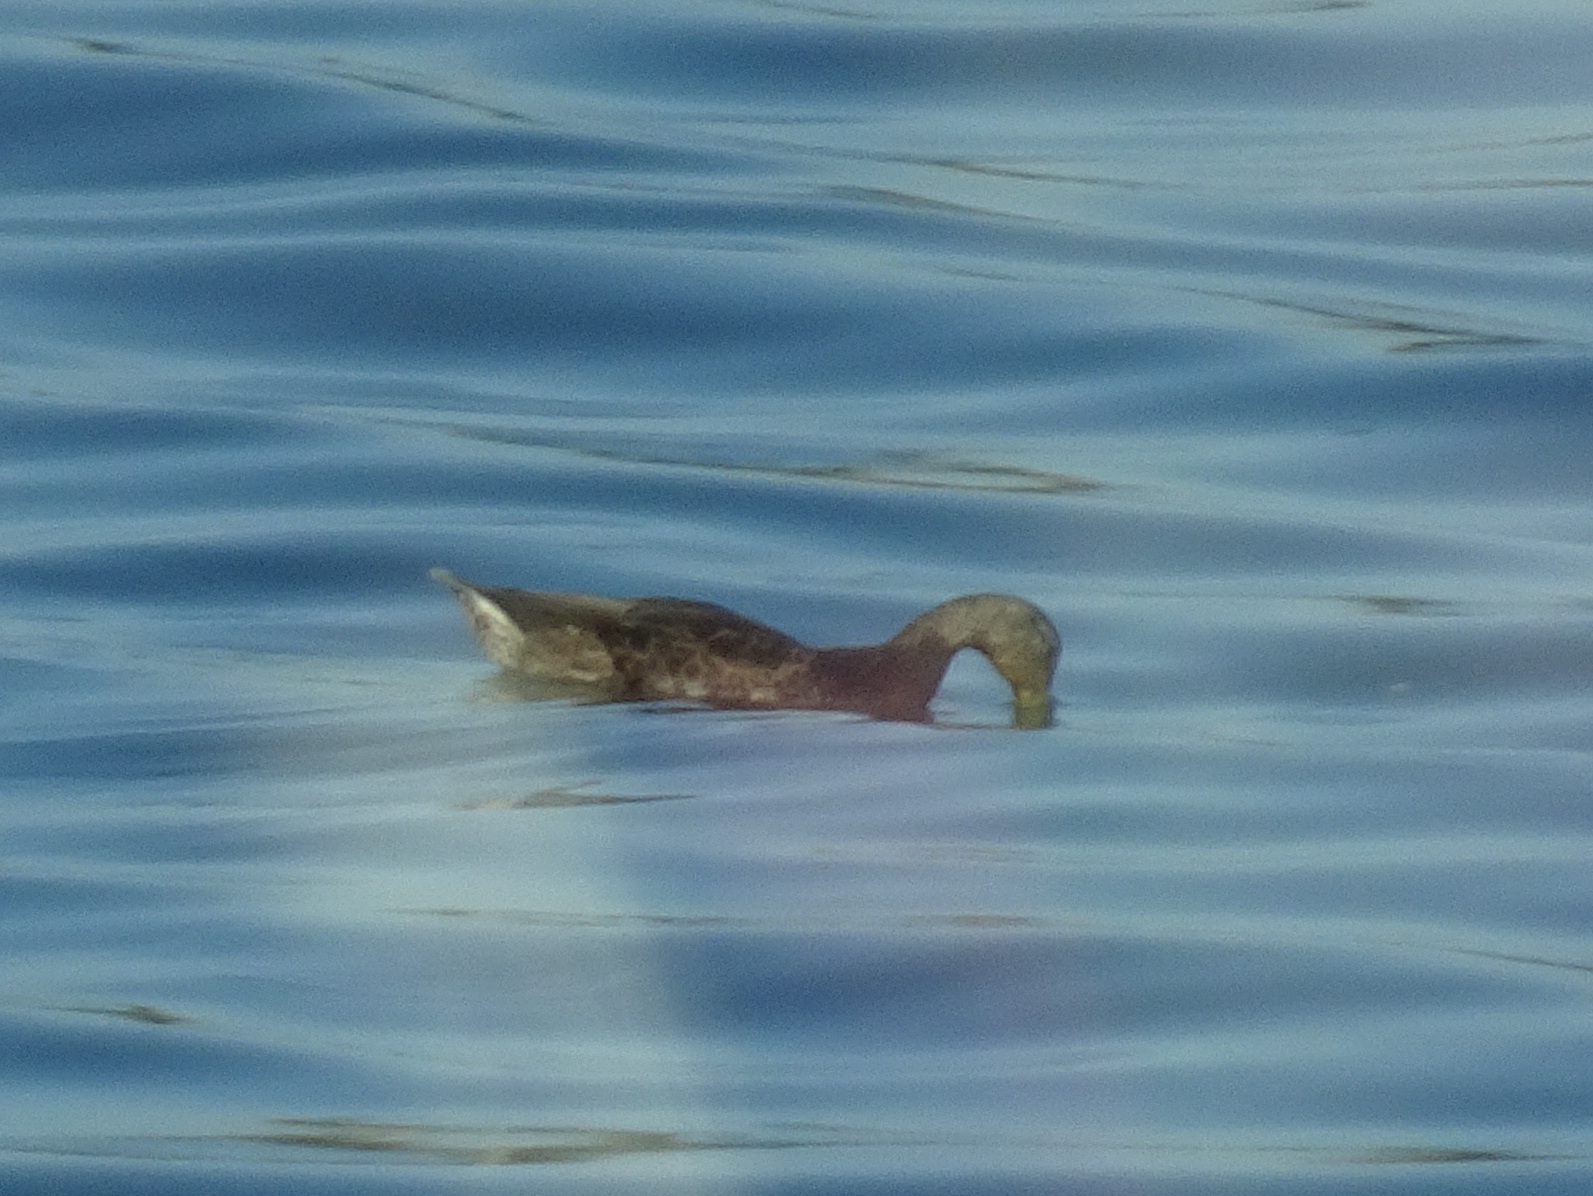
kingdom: Animalia
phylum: Chordata
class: Aves
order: Anseriformes
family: Anatidae
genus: Anas
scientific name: Anas rubripes
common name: American black duck
